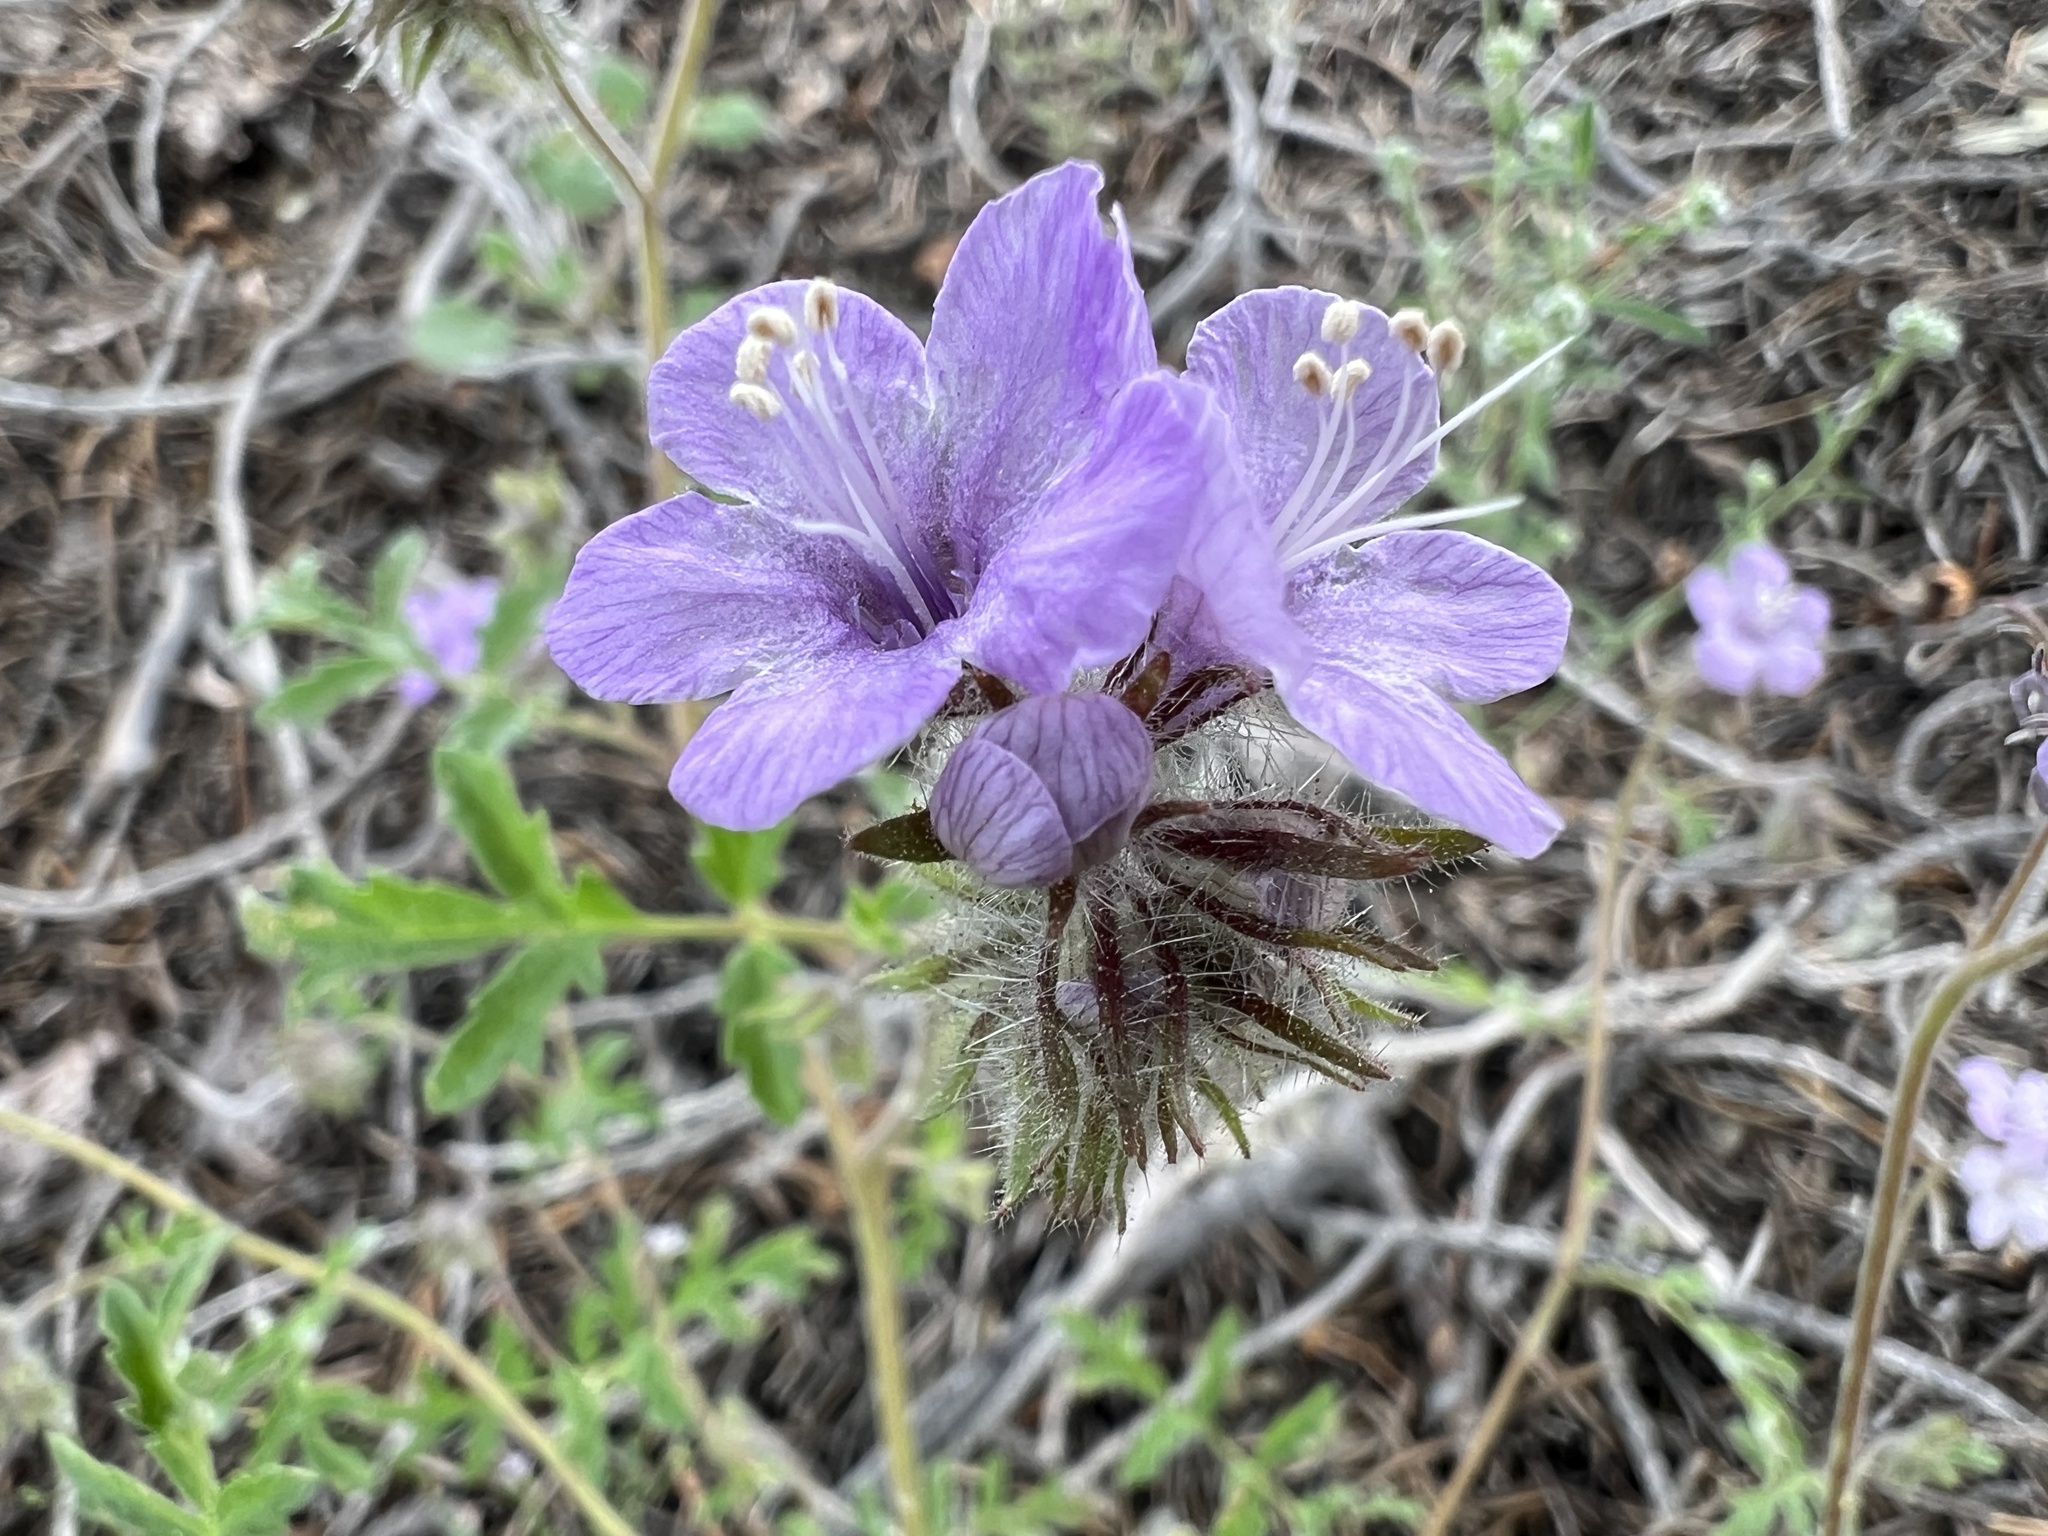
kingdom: Plantae
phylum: Tracheophyta
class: Magnoliopsida
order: Boraginales
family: Hydrophyllaceae
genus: Phacelia
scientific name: Phacelia vallis-mortae
